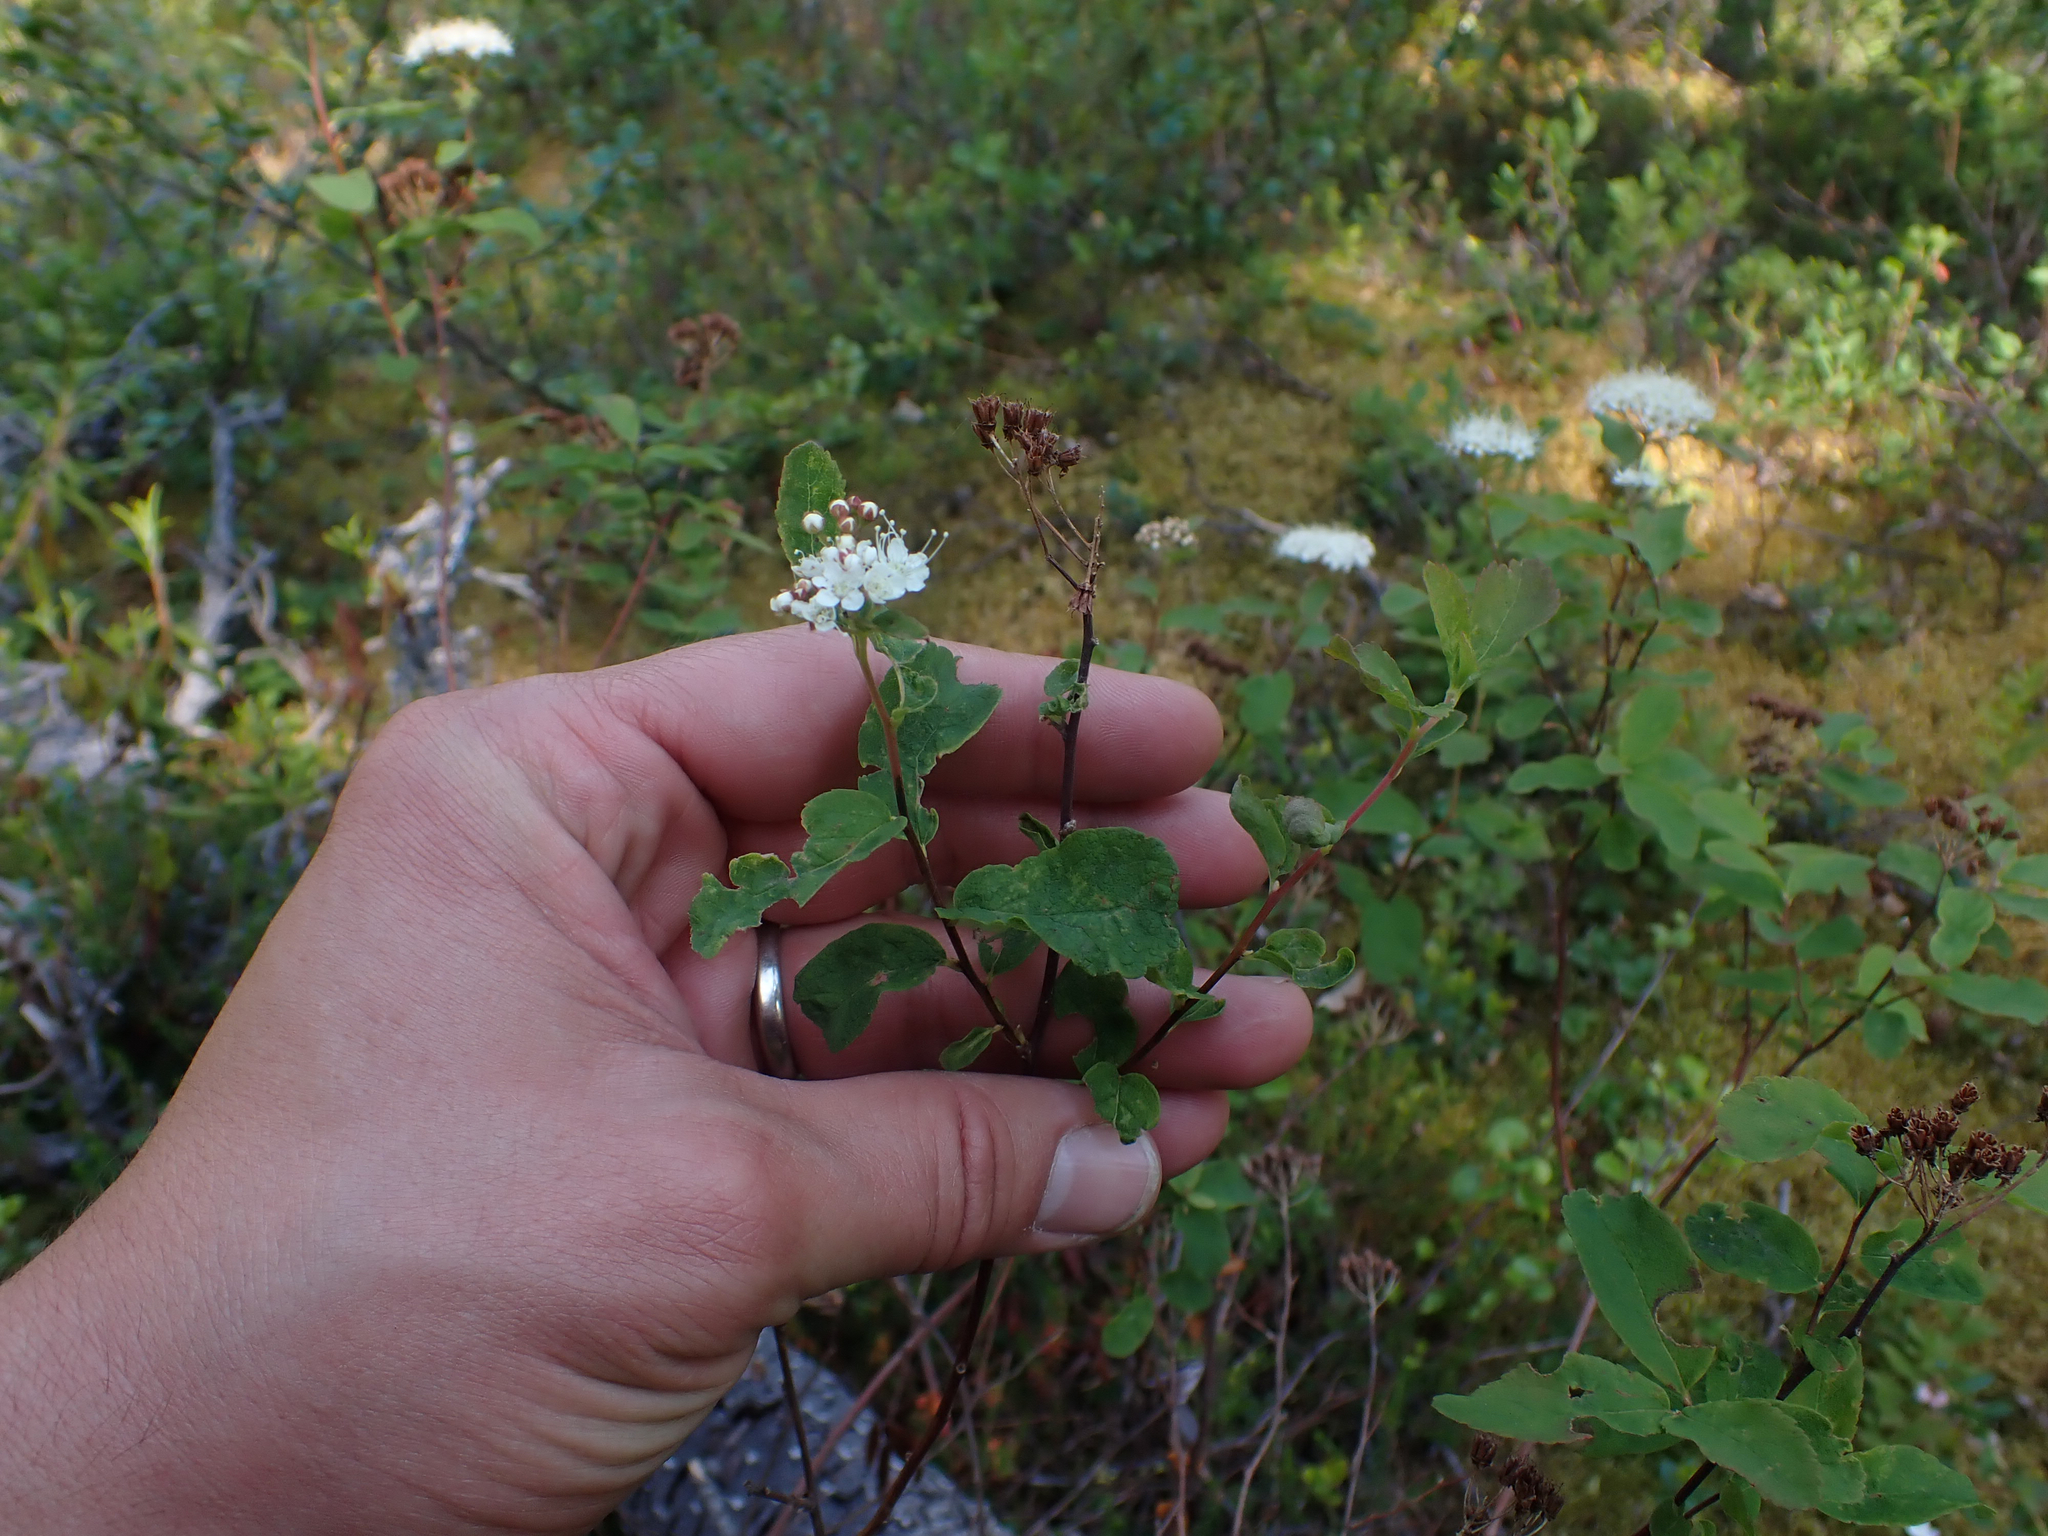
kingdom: Plantae
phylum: Tracheophyta
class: Magnoliopsida
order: Rosales
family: Rosaceae
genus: Spiraea
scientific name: Spiraea stevenii
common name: Steven's meadowsweet
